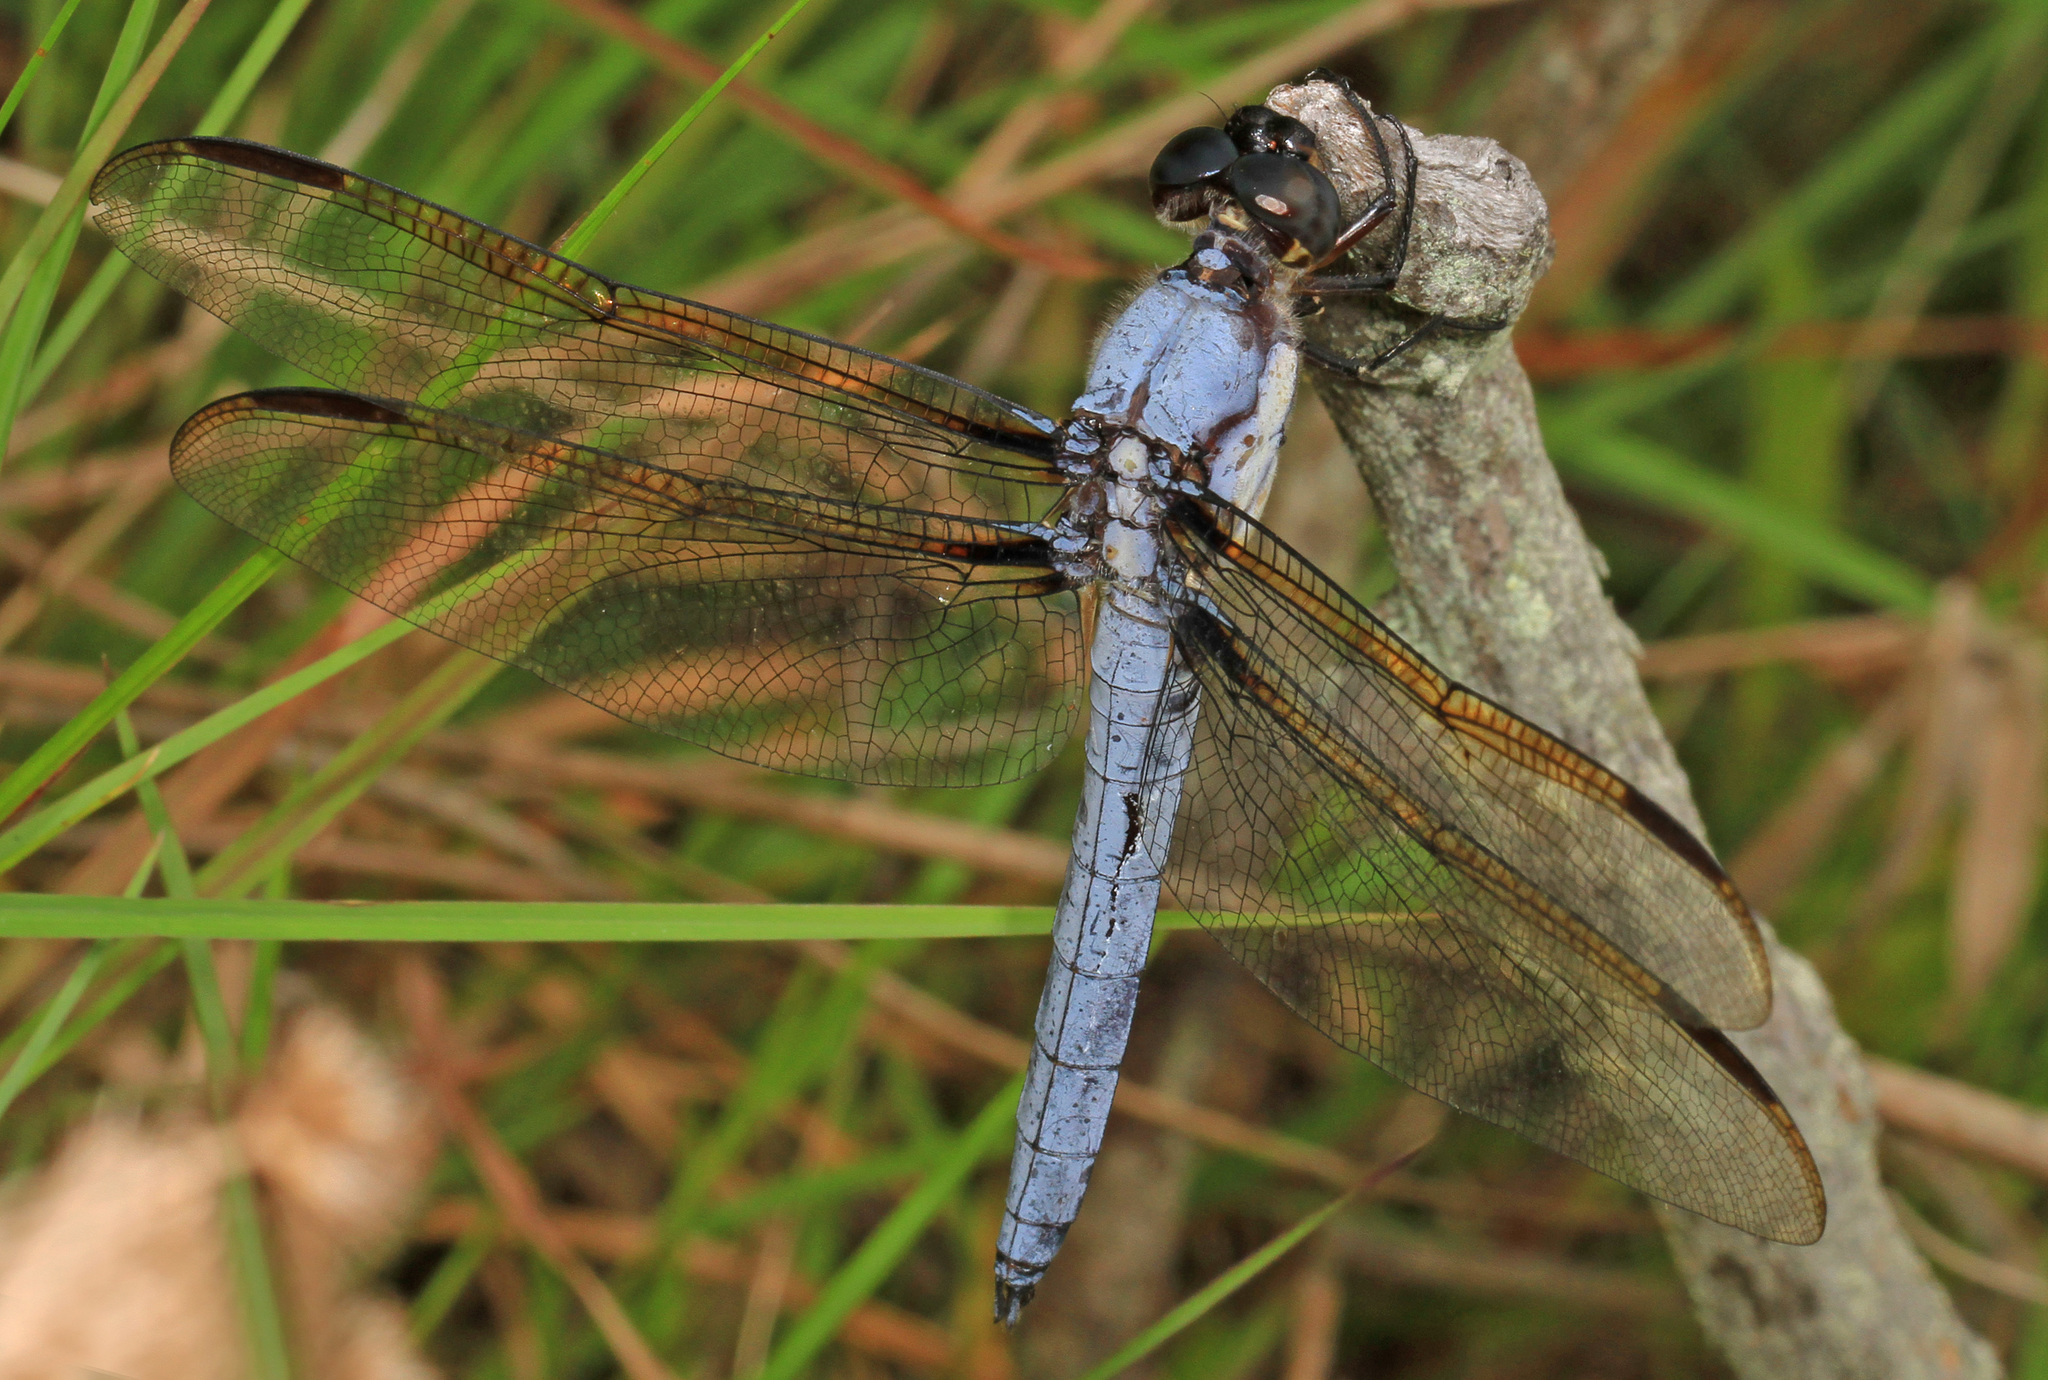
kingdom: Animalia
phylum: Arthropoda
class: Insecta
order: Odonata
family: Libellulidae
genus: Libellula
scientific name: Libellula flavida
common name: Yellow-sided skimmer
